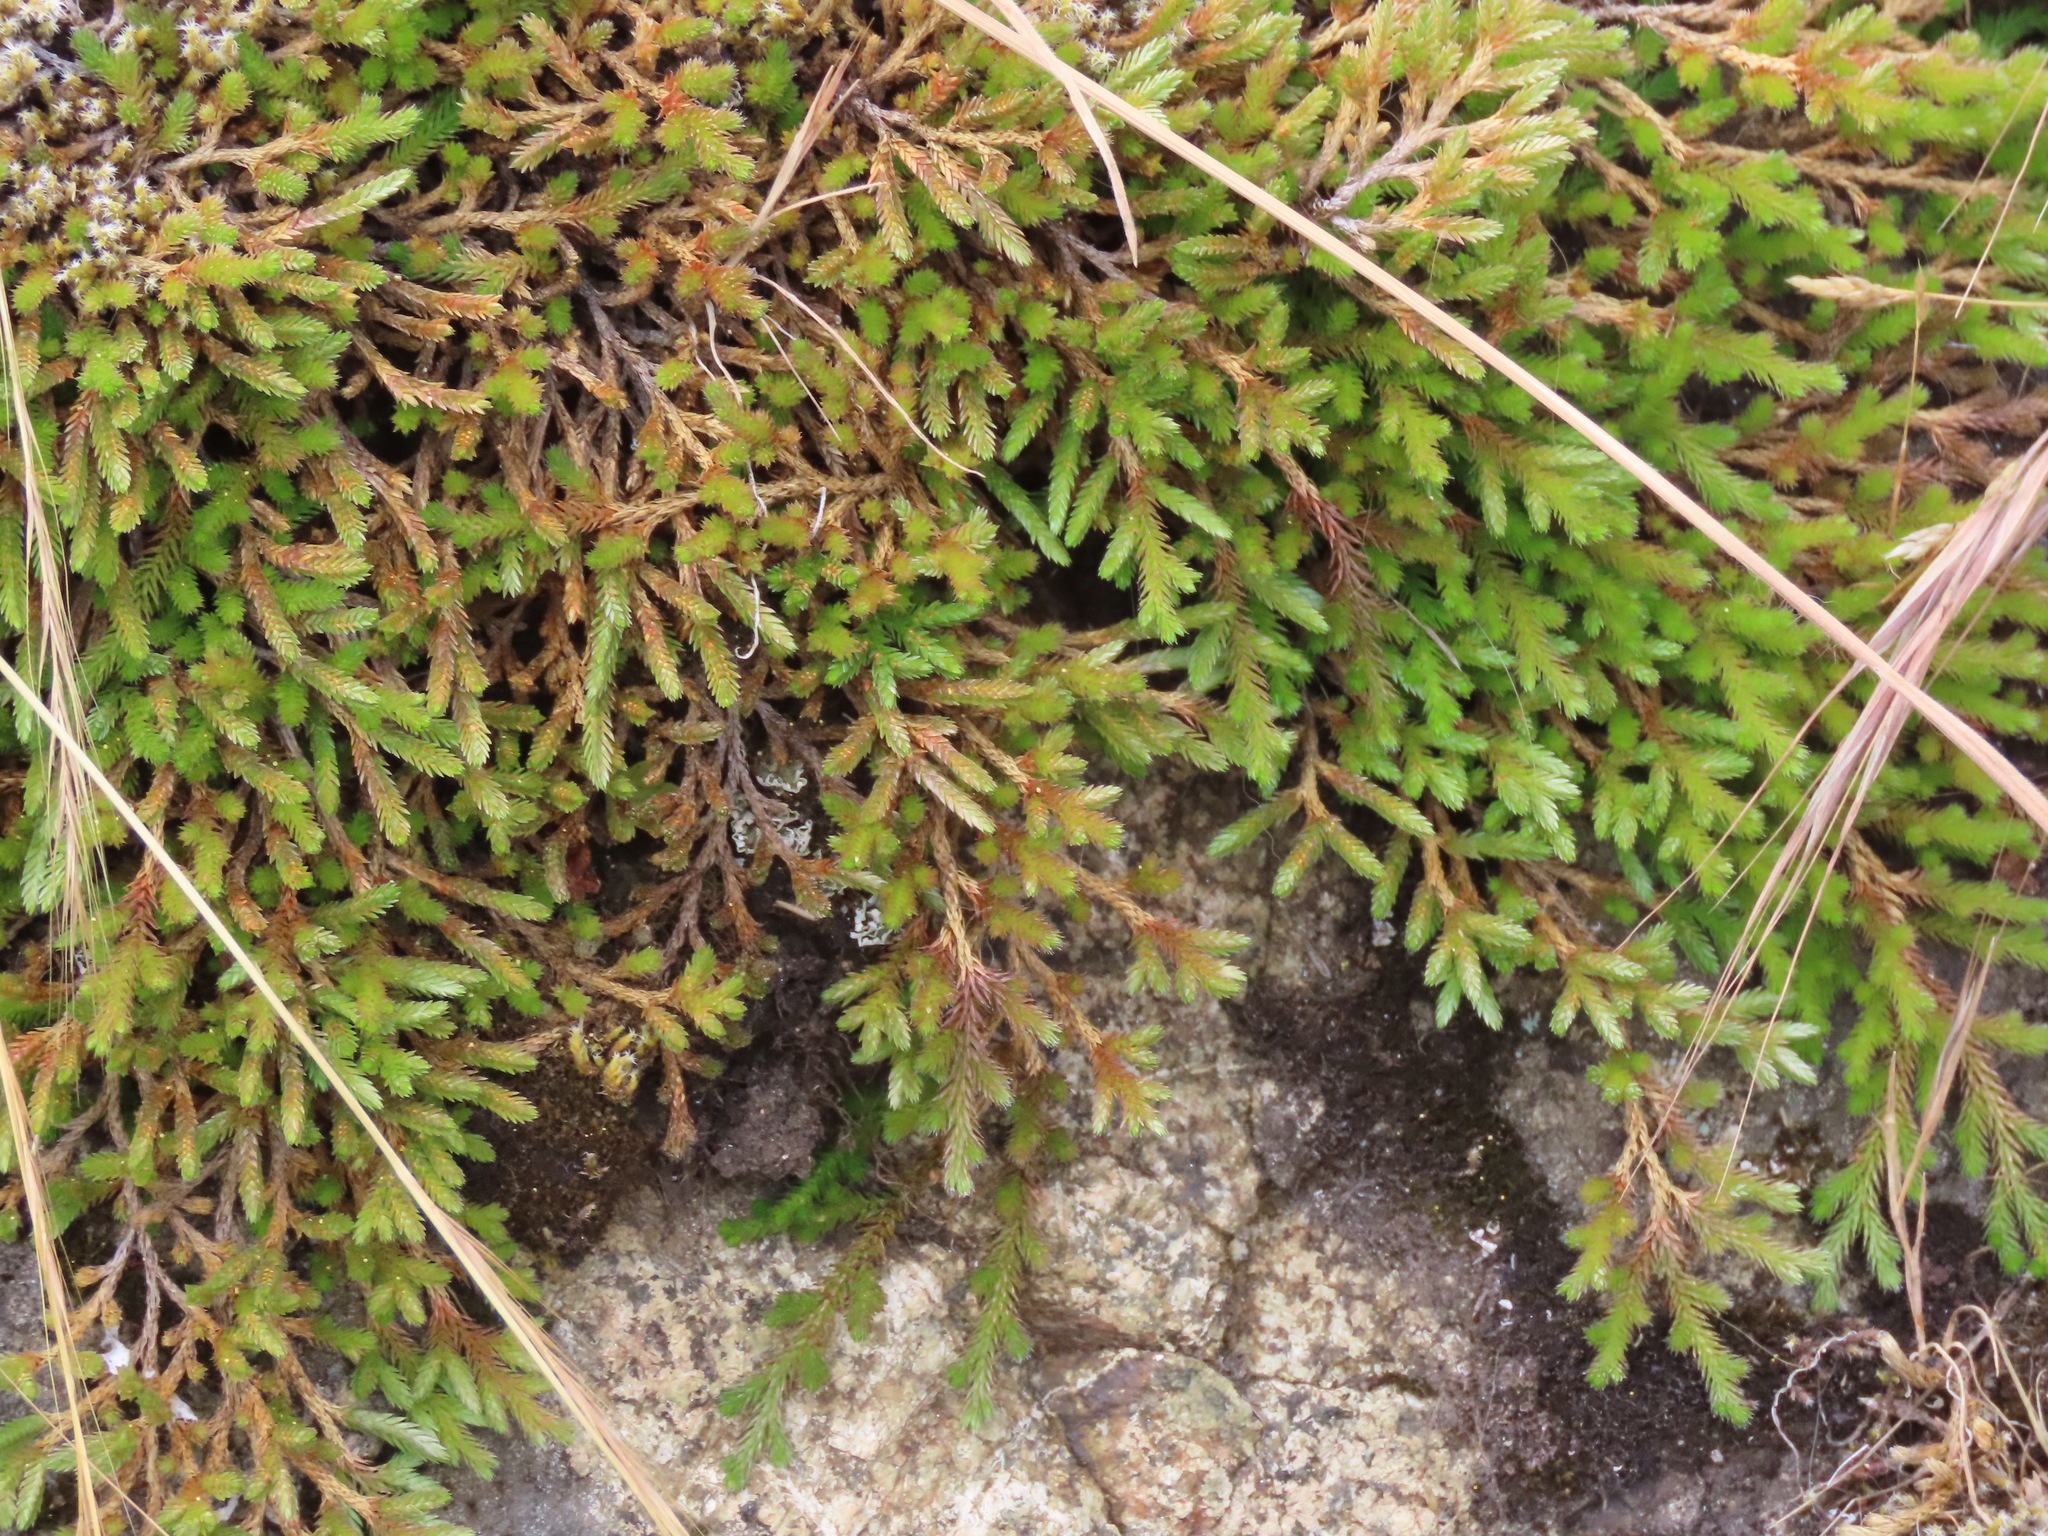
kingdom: Plantae
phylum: Tracheophyta
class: Lycopodiopsida
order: Selaginellales
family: Selaginellaceae
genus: Selaginella
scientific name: Selaginella wallacei
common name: Wallace's selaginella
